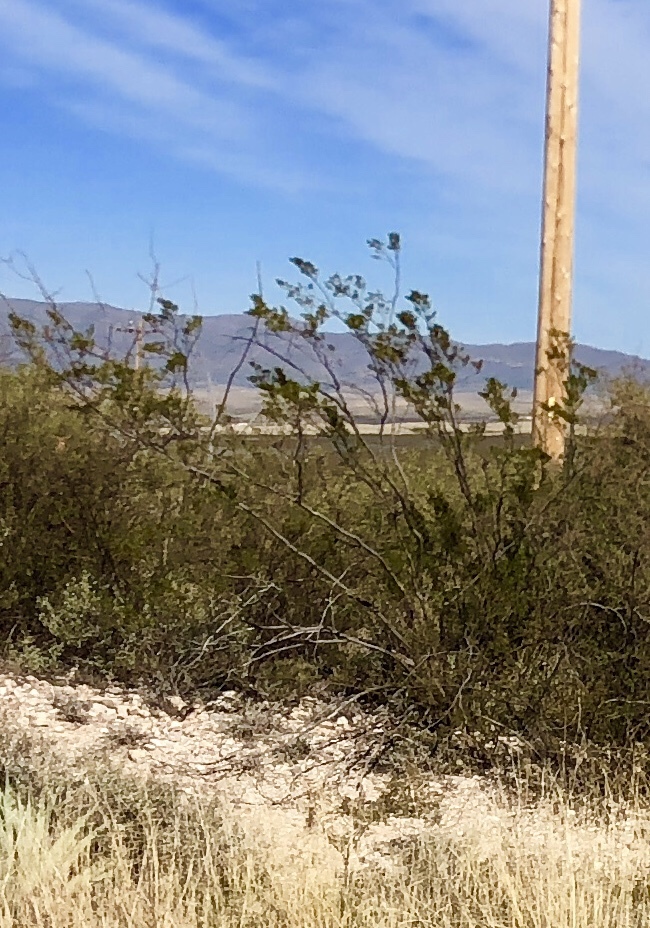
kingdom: Plantae
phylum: Tracheophyta
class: Magnoliopsida
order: Zygophyllales
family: Zygophyllaceae
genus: Larrea
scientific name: Larrea tridentata
